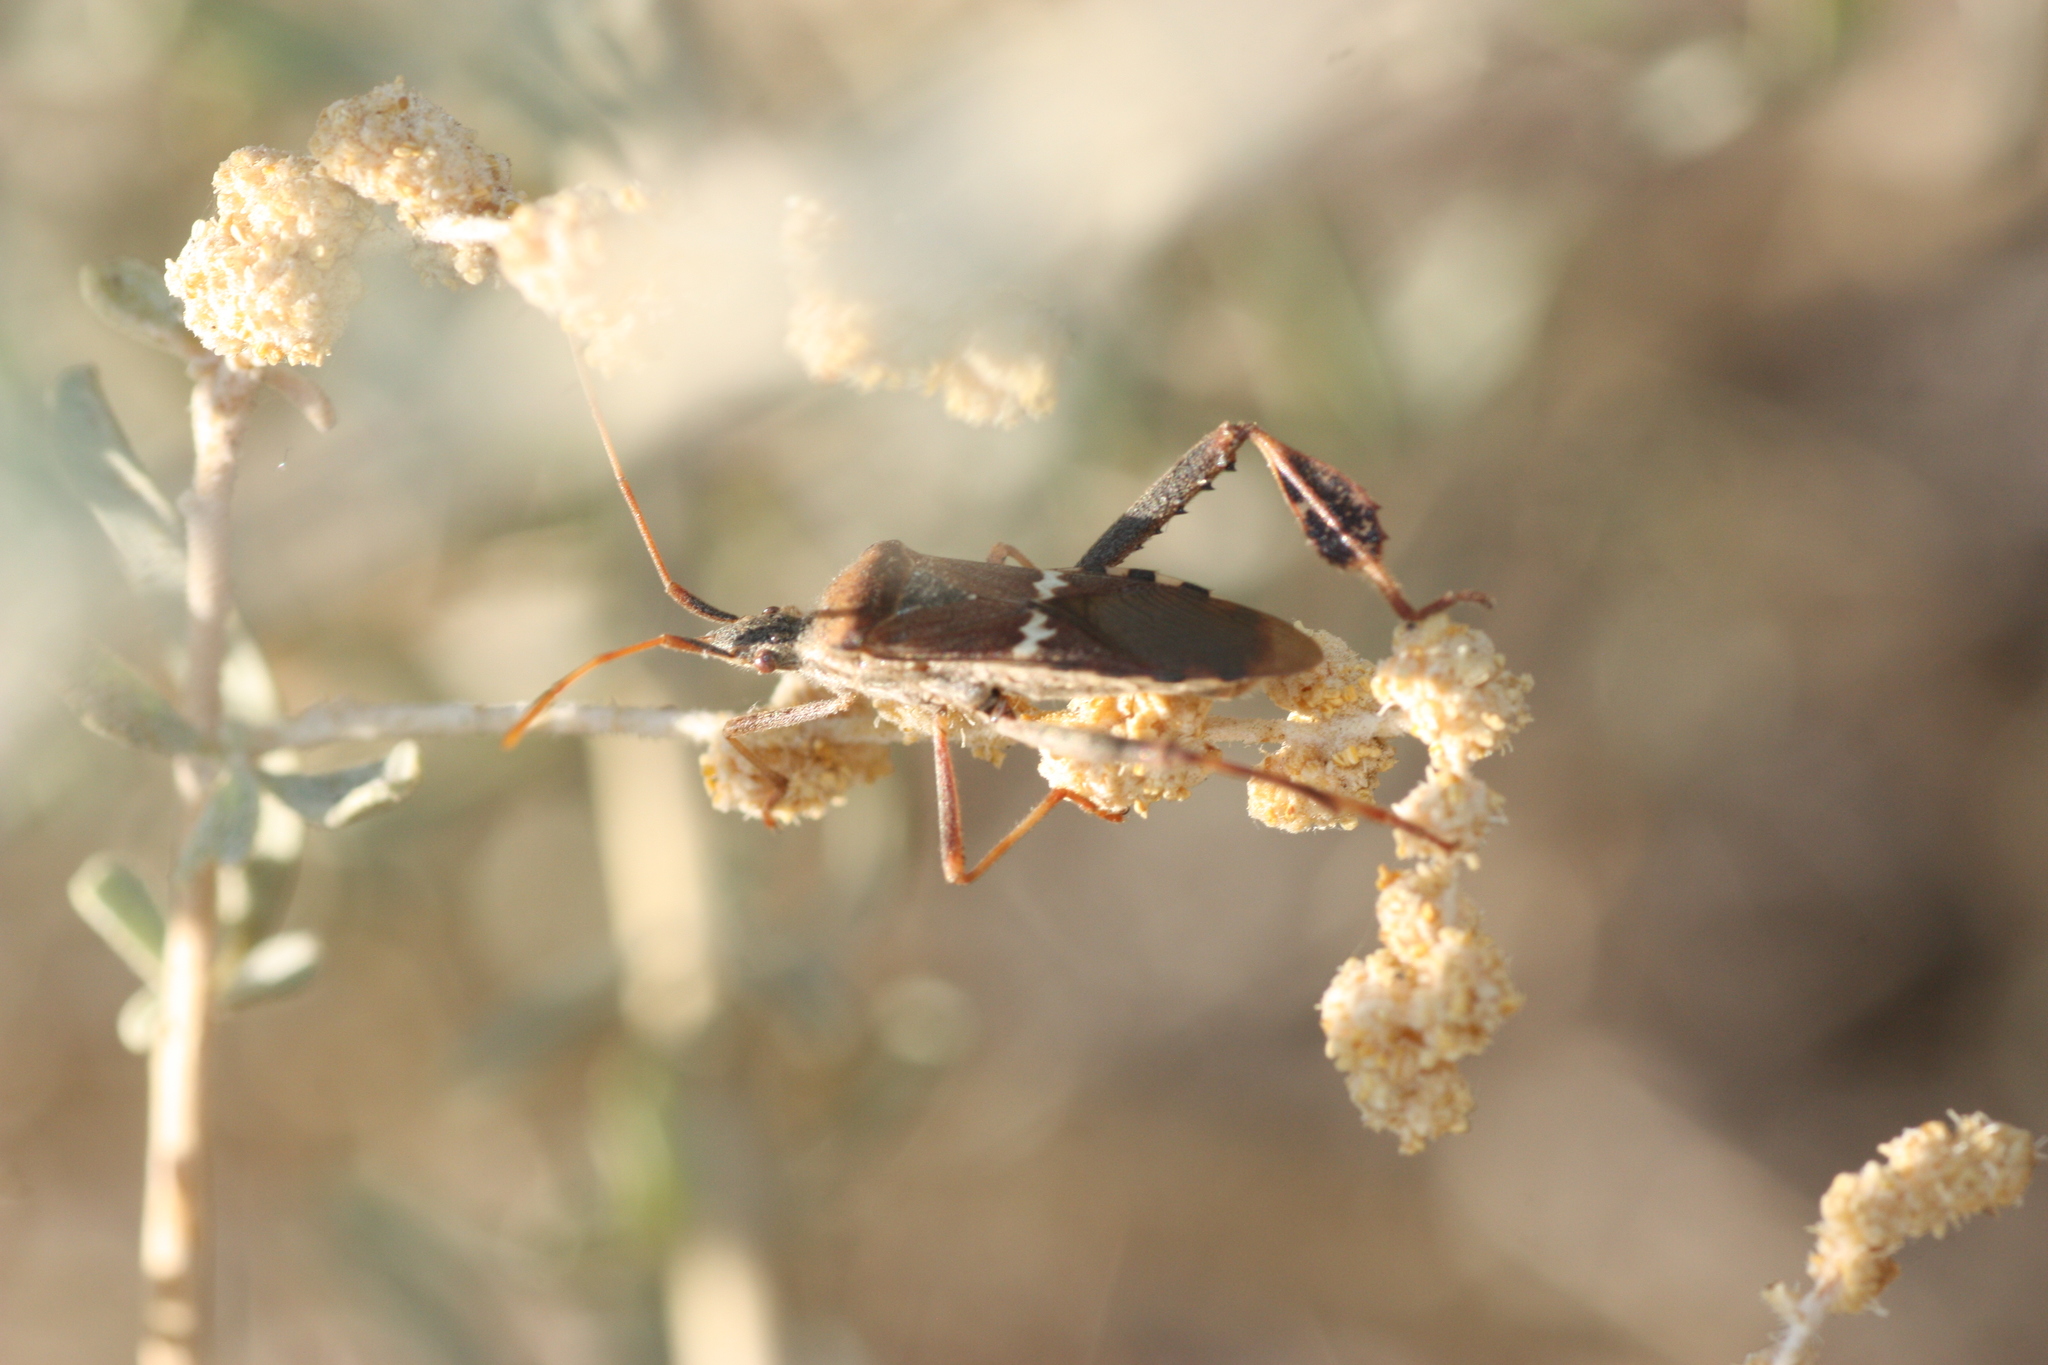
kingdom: Animalia
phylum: Arthropoda
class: Insecta
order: Hemiptera
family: Coreidae
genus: Leptoglossus
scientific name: Leptoglossus clypealis
